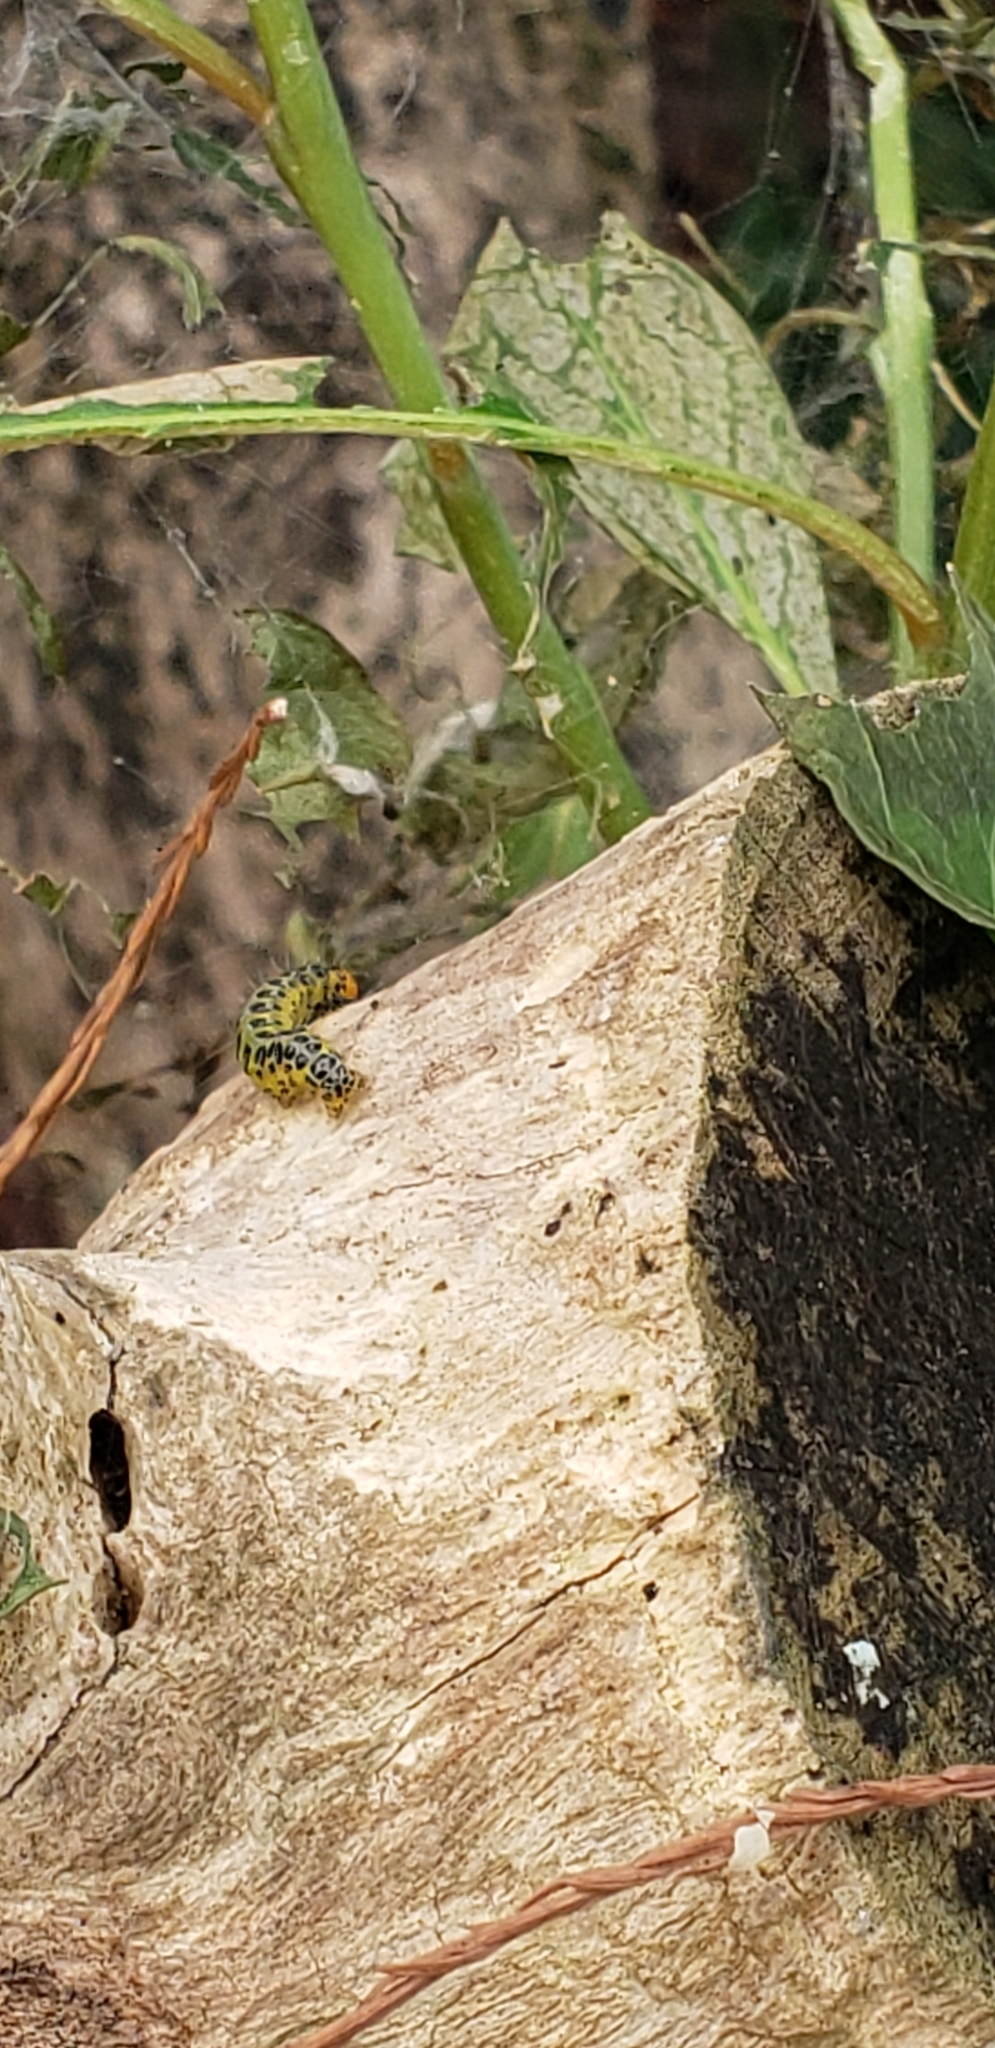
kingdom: Animalia
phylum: Arthropoda
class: Insecta
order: Lepidoptera
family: Crambidae
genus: Epicorsia
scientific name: Epicorsia oedipodalis
